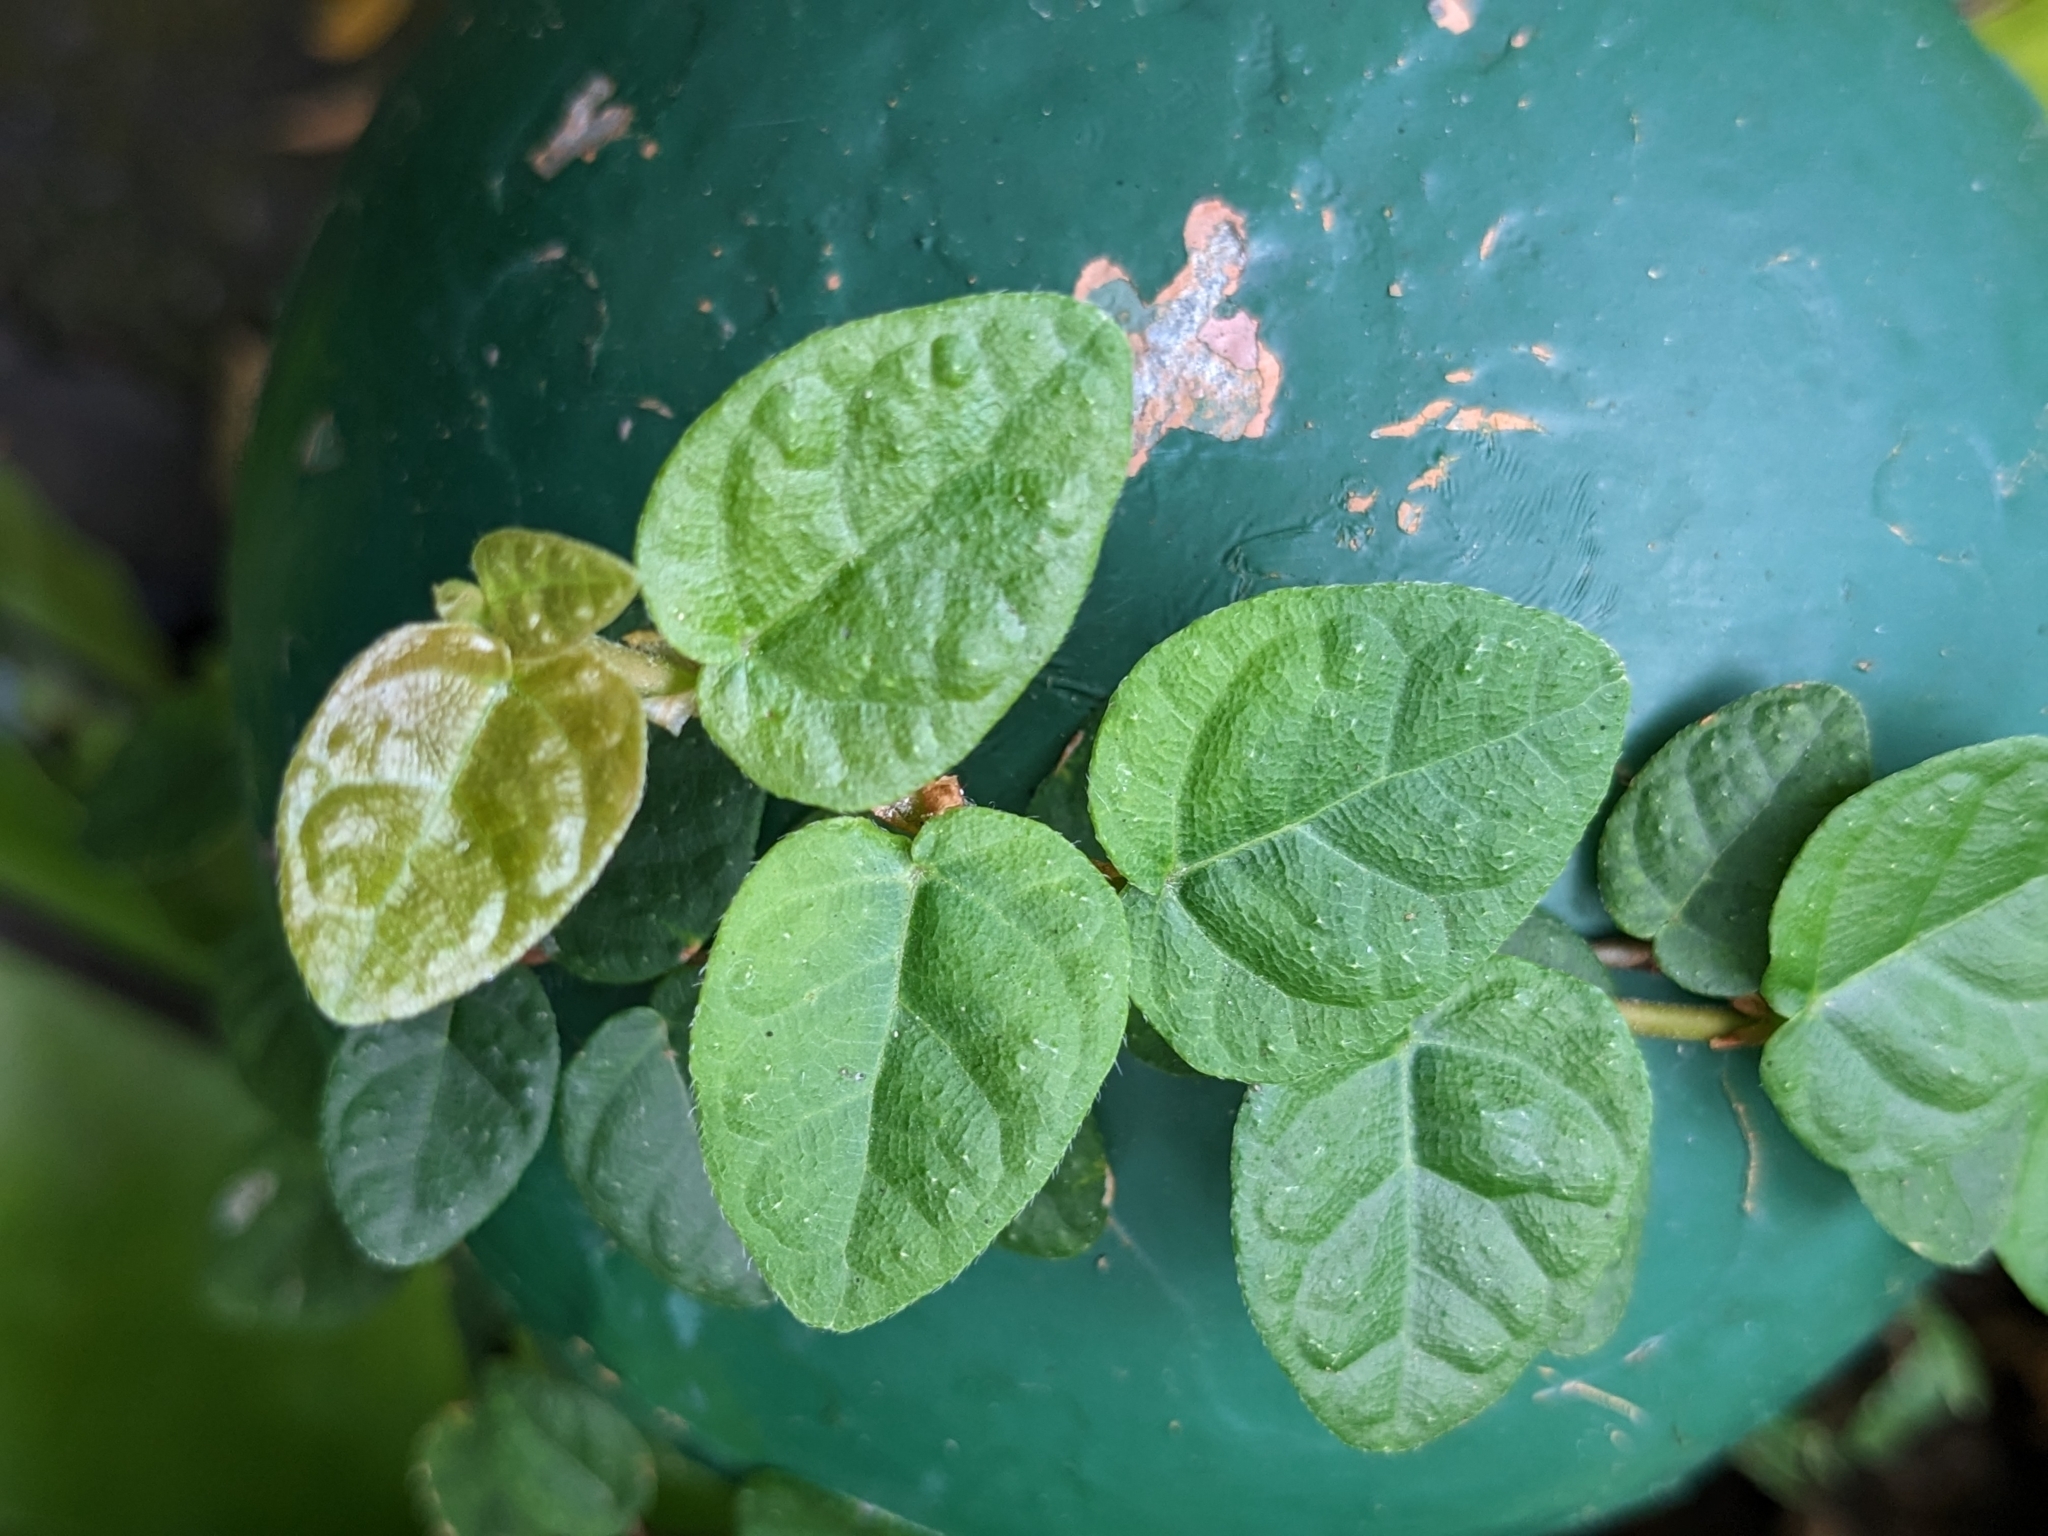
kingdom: Plantae
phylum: Tracheophyta
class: Magnoliopsida
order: Rosales
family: Moraceae
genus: Ficus
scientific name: Ficus pumila
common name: Climbingfig
